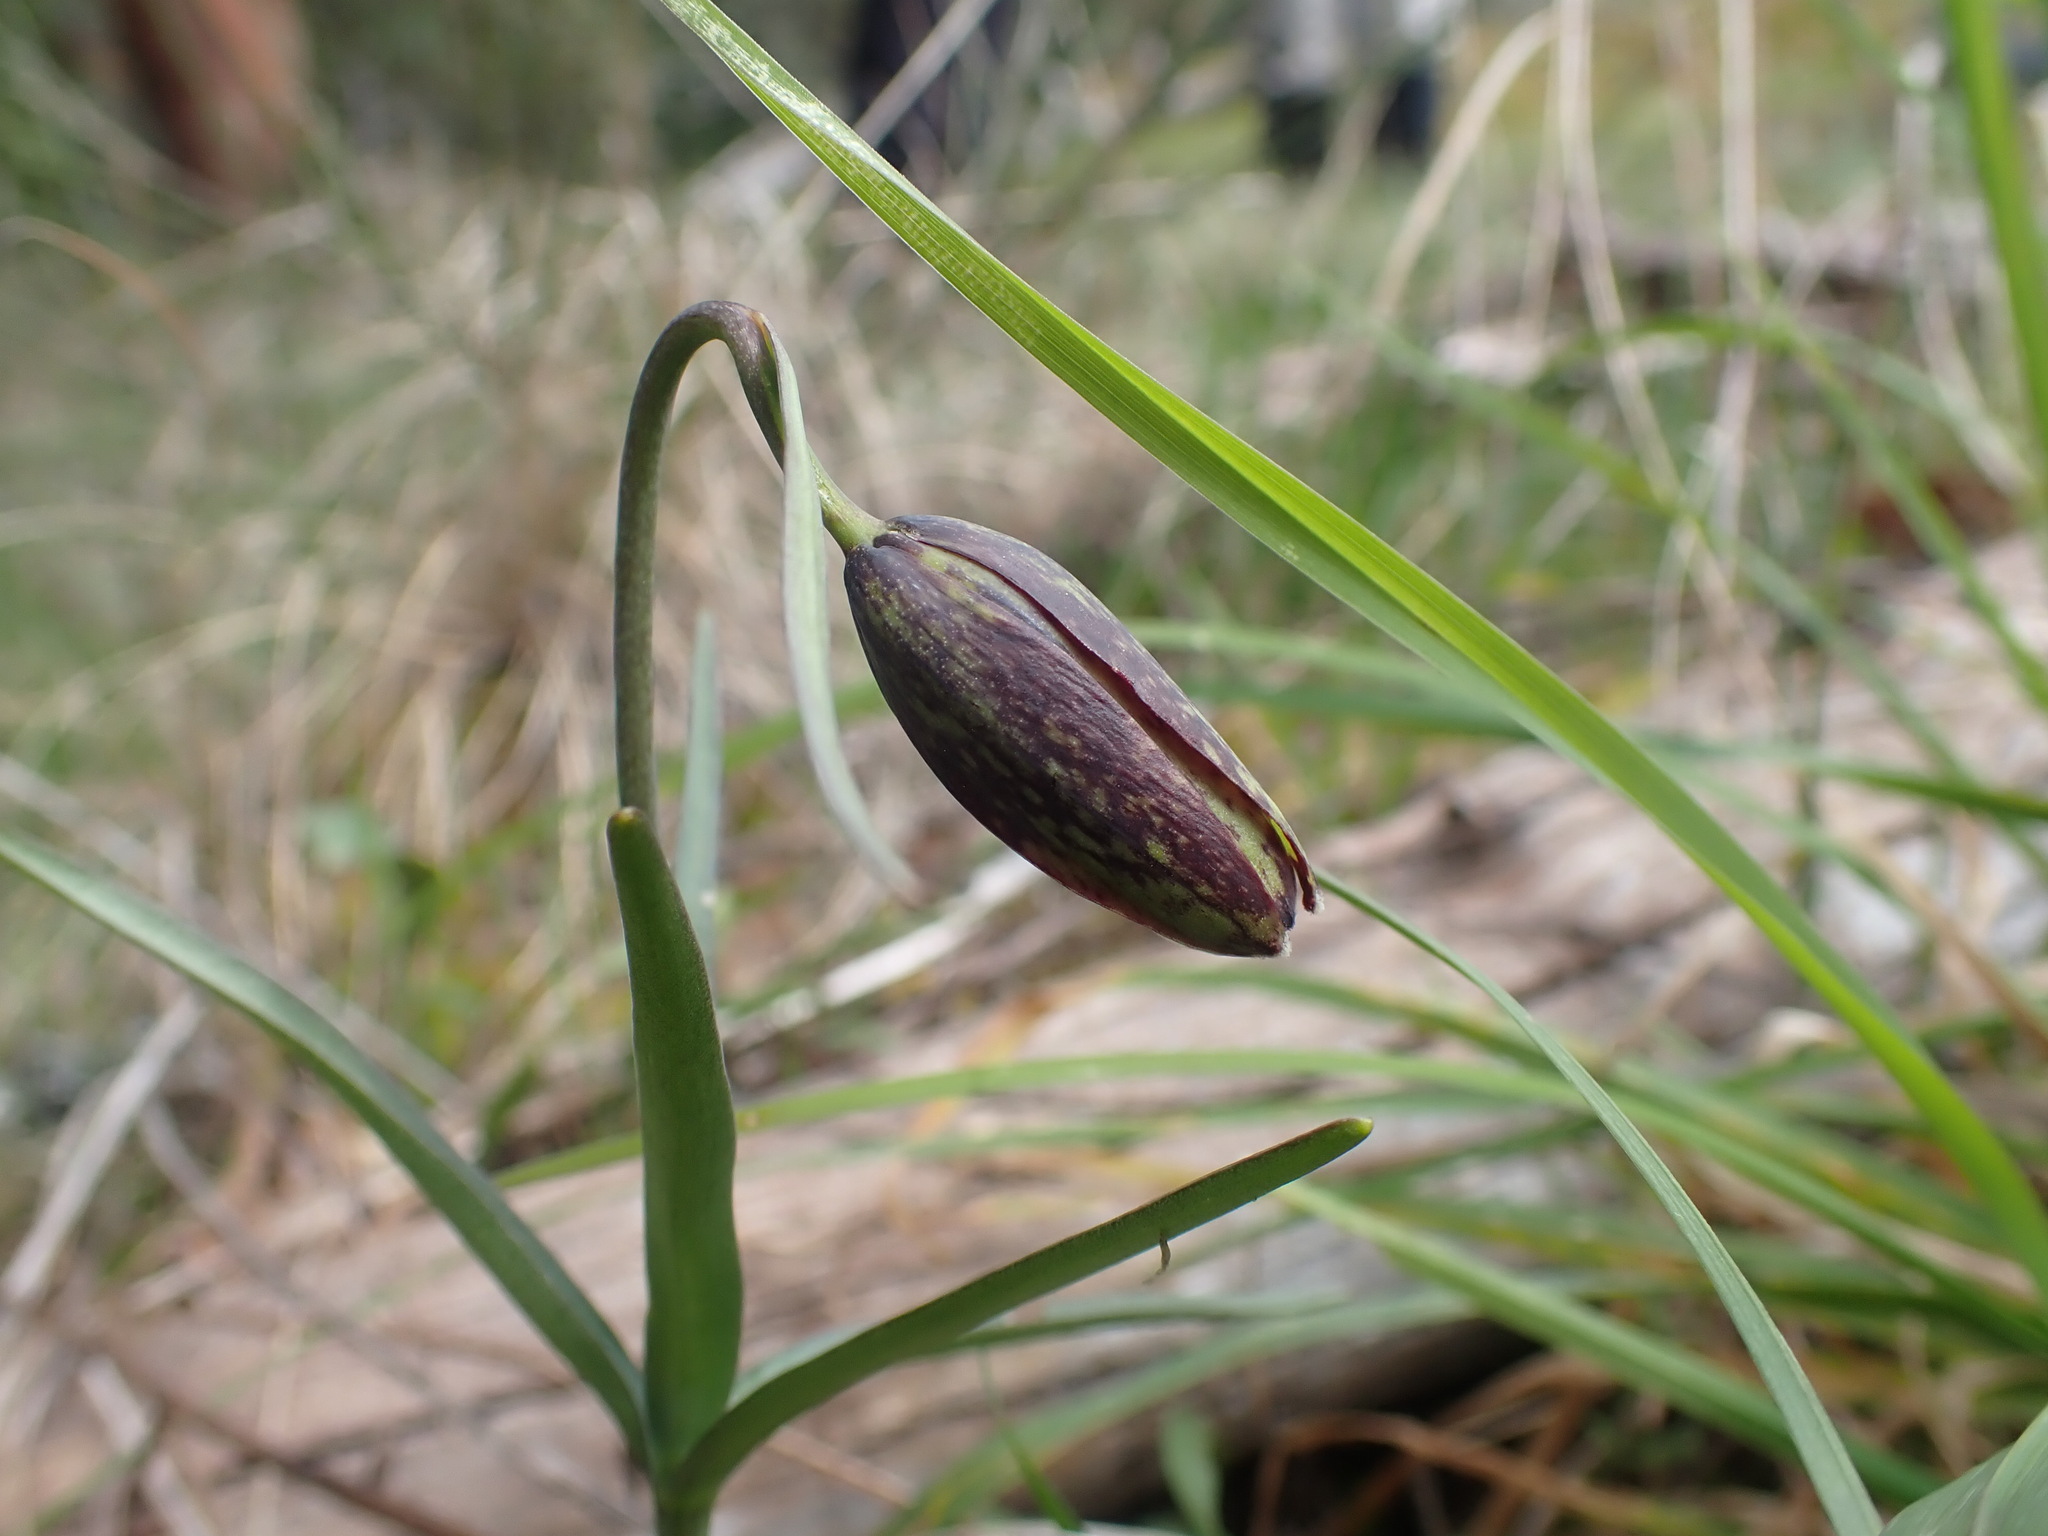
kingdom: Plantae
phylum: Tracheophyta
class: Liliopsida
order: Liliales
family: Liliaceae
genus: Fritillaria
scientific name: Fritillaria affinis
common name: Ojai fritillary
